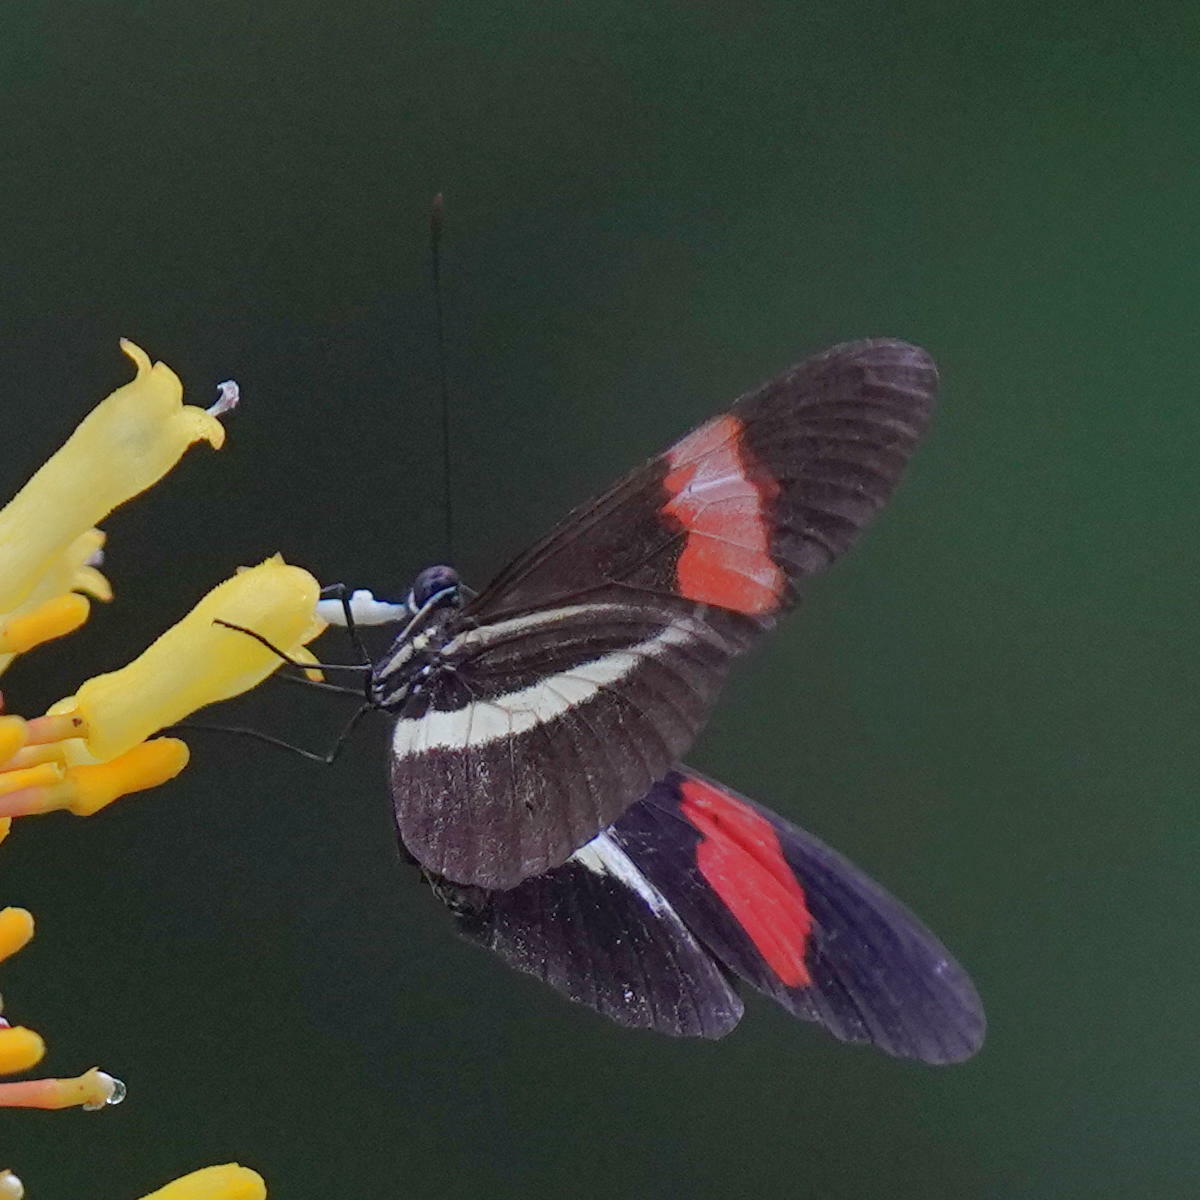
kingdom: Animalia
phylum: Arthropoda
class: Insecta
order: Lepidoptera
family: Nymphalidae
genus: Tirumala
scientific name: Tirumala petiverana
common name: Blue monarch
